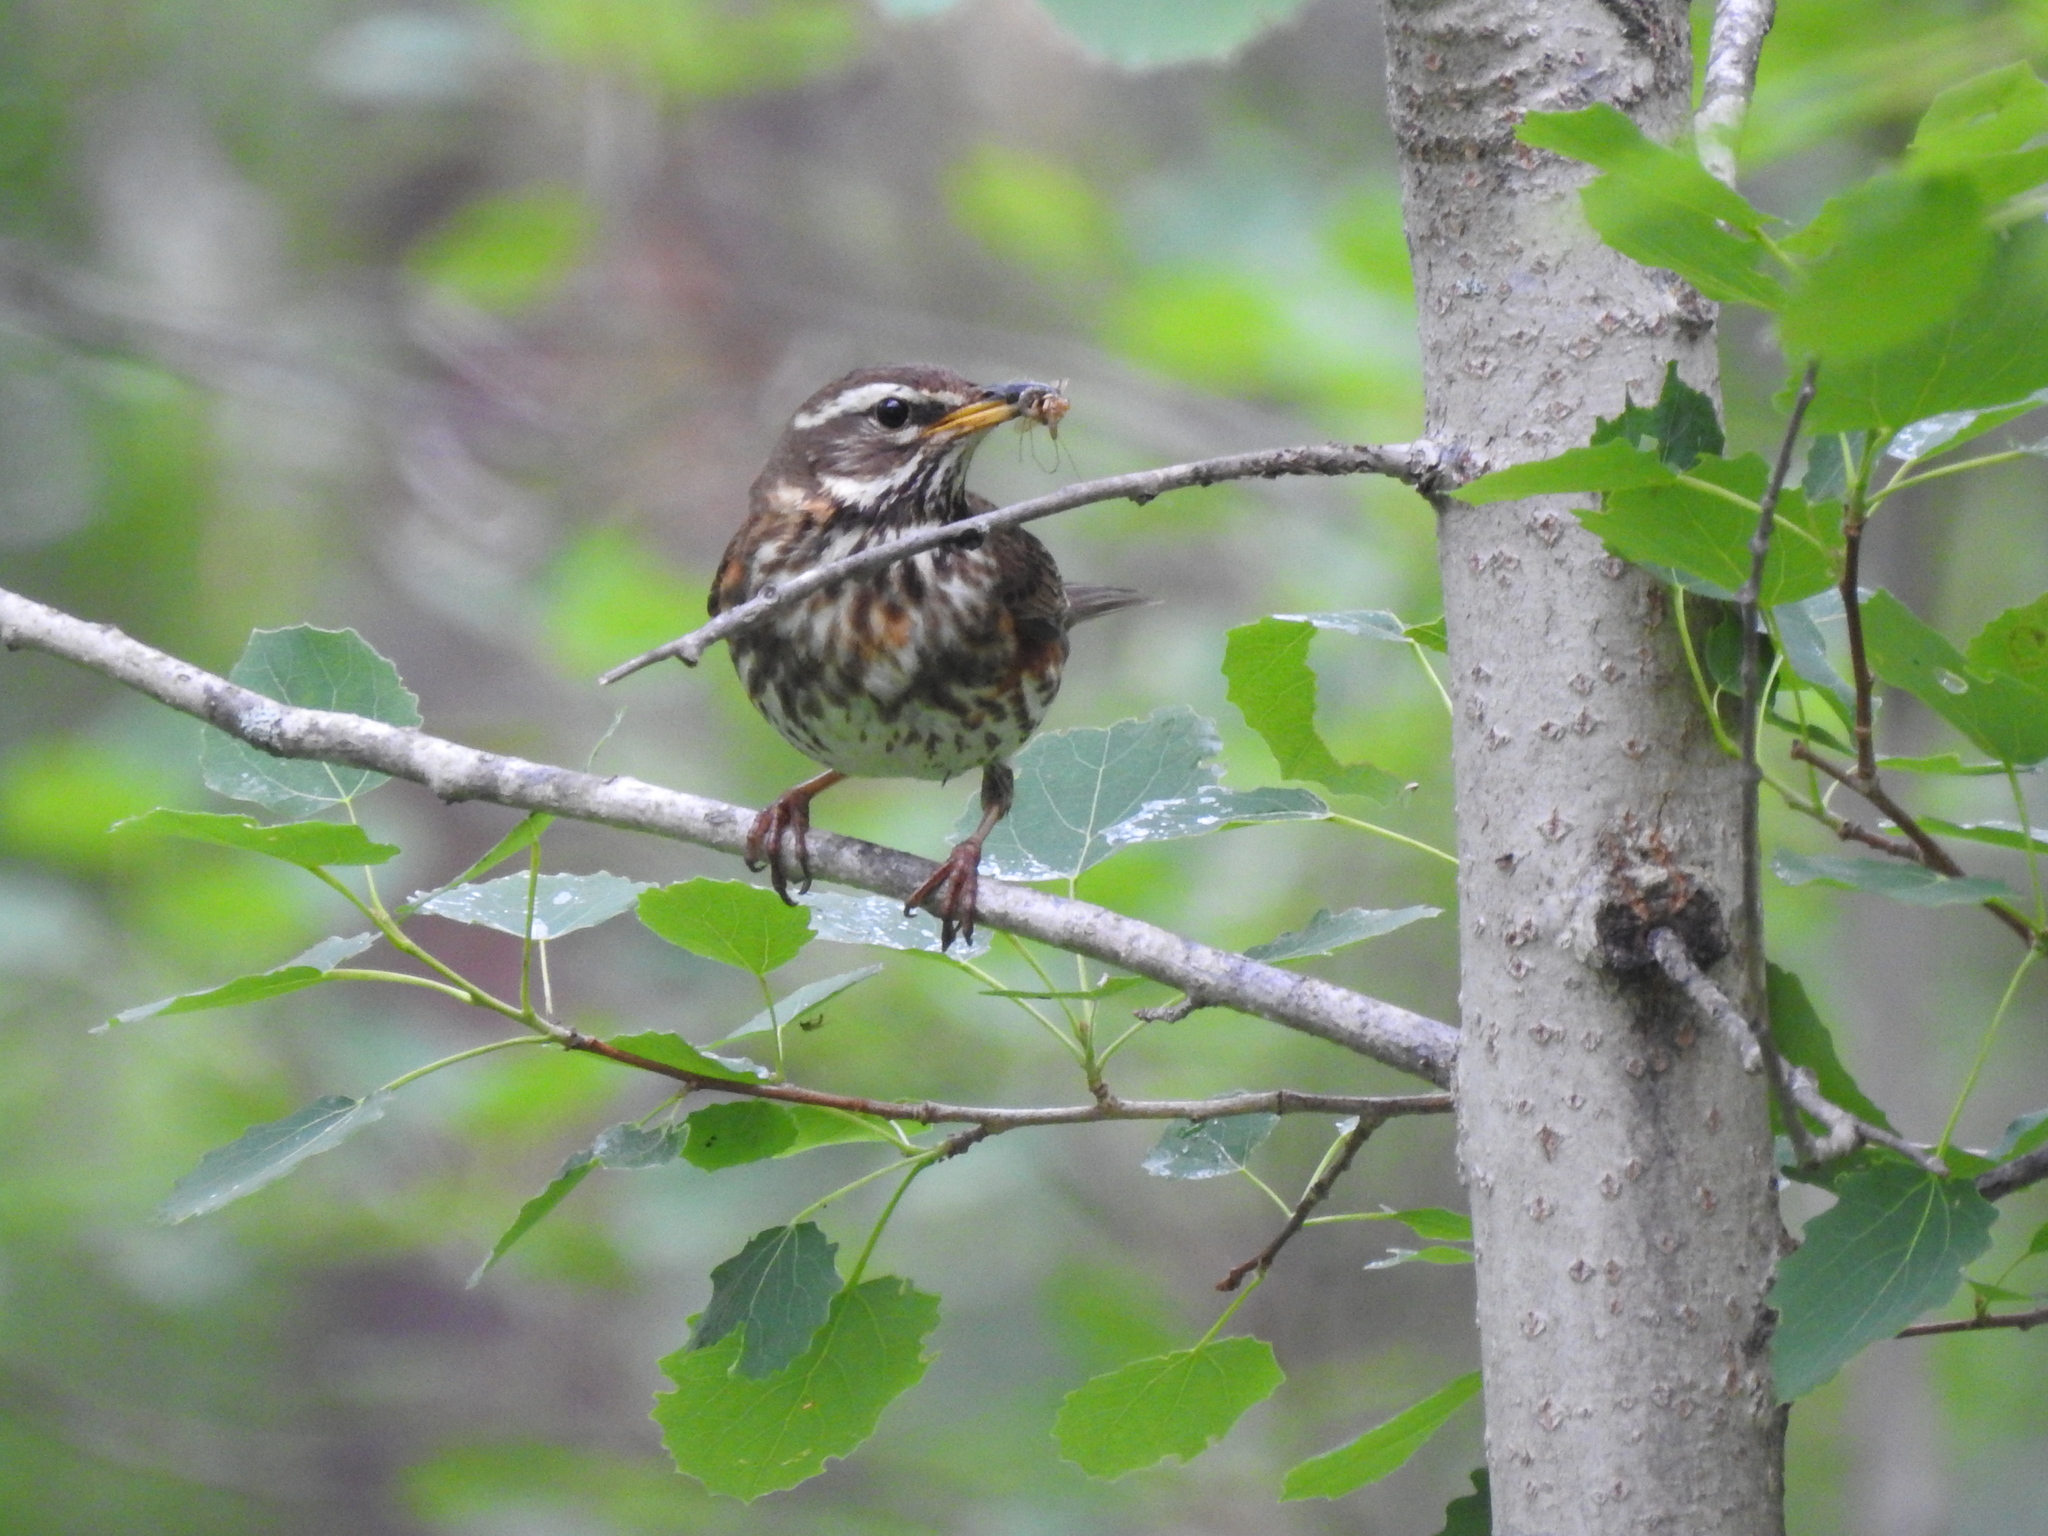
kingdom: Animalia
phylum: Chordata
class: Aves
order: Passeriformes
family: Turdidae
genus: Turdus
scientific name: Turdus iliacus
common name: Redwing
